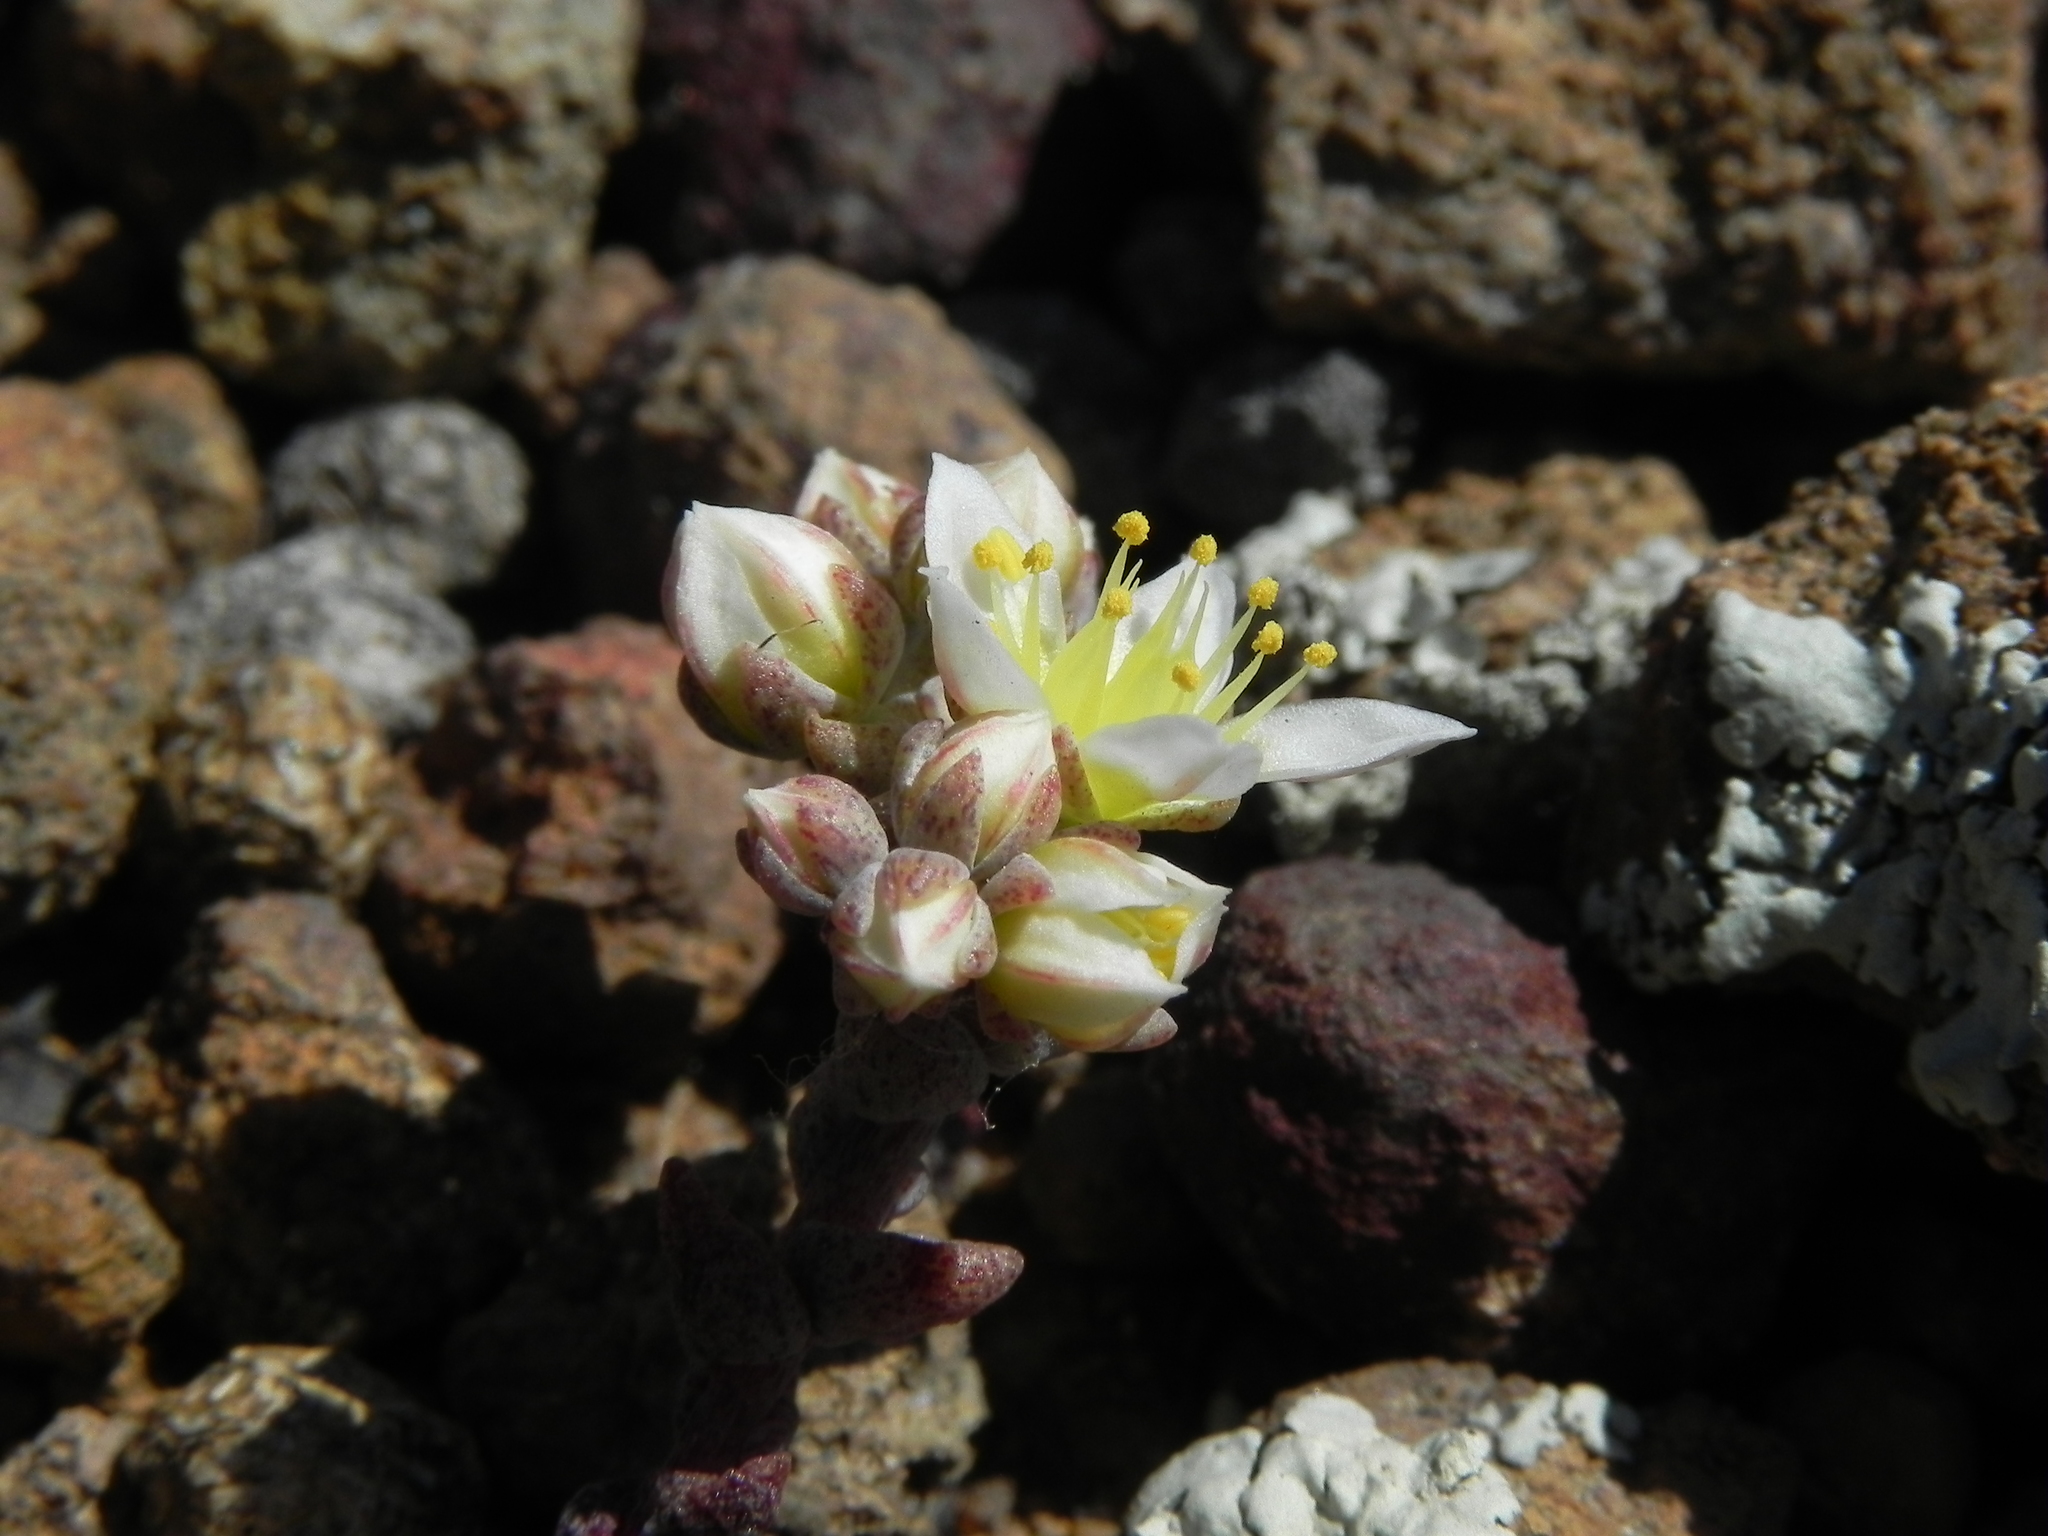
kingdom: Plantae
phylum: Tracheophyta
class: Magnoliopsida
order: Saxifragales
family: Crassulaceae
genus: Dudleya
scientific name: Dudleya blochmaniae
